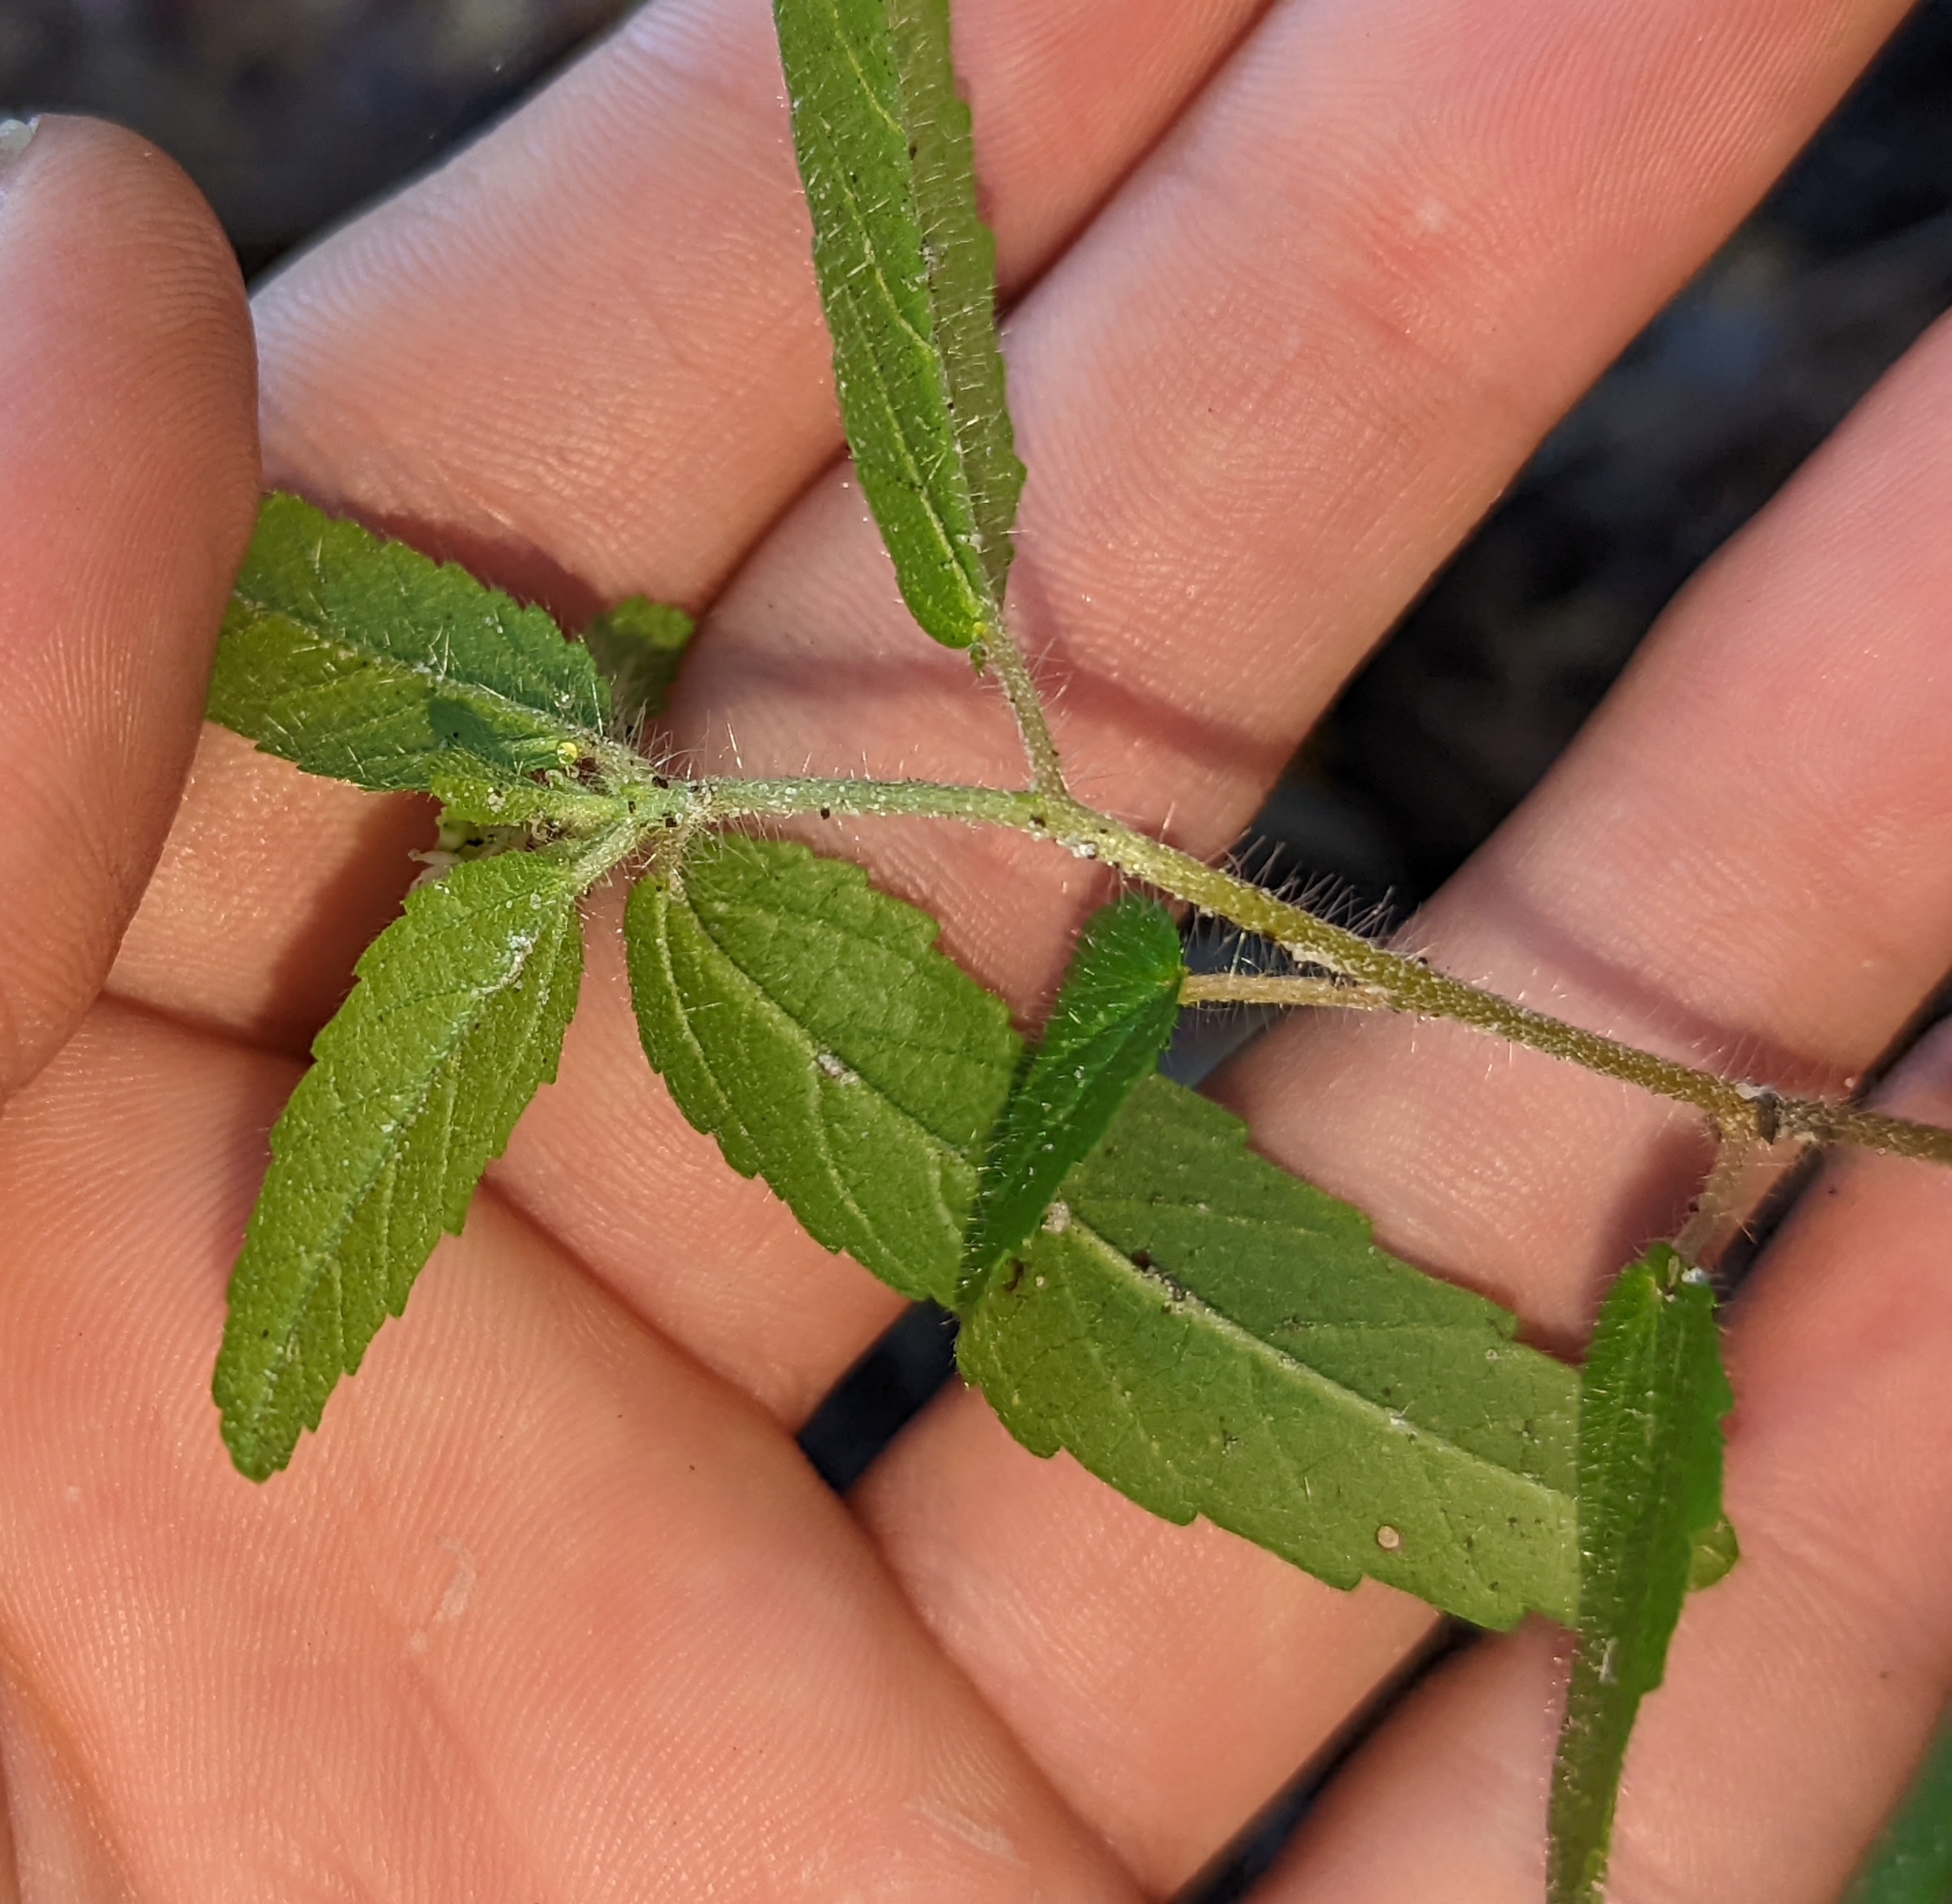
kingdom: Plantae
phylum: Tracheophyta
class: Magnoliopsida
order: Malpighiales
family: Euphorbiaceae
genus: Croton
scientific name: Croton glandulosus
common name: Tropic croton
